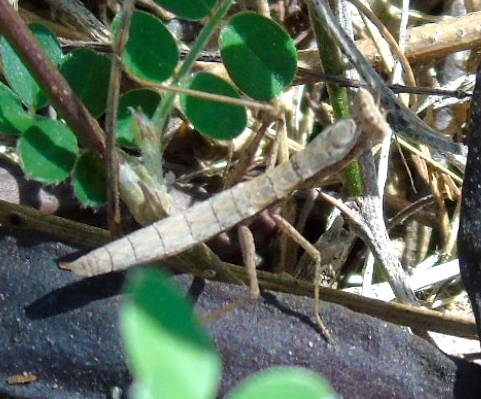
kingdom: Animalia
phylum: Arthropoda
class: Insecta
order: Mantodea
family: Amelidae
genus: Yersinia
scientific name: Yersinia mexicana
